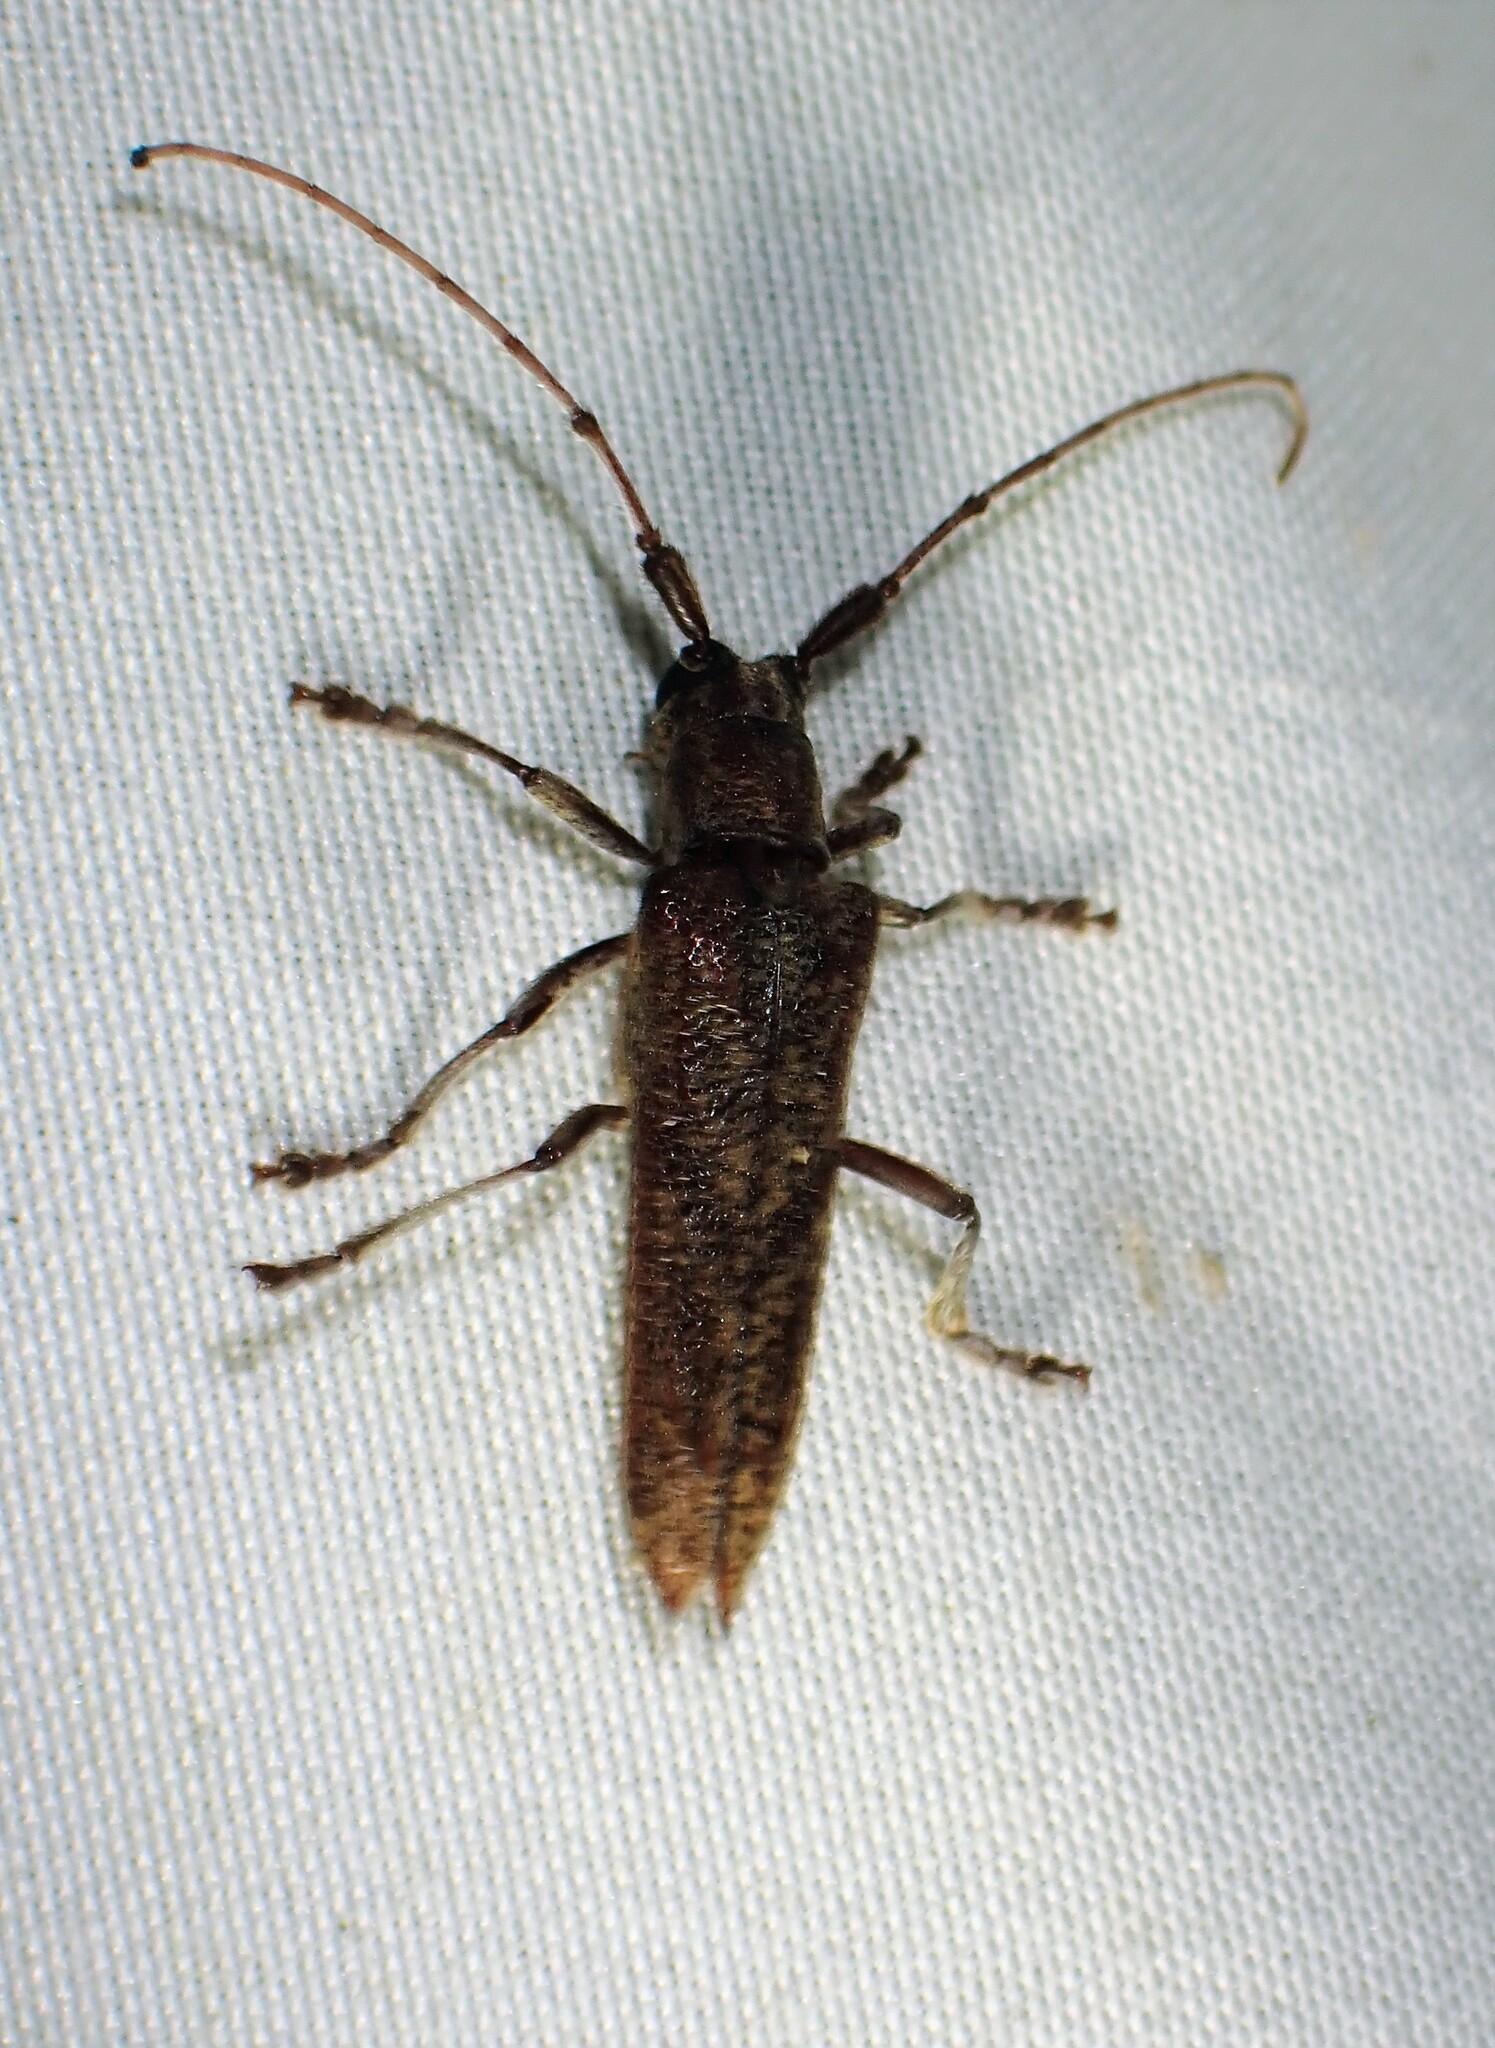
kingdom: Animalia
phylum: Arthropoda
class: Insecta
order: Coleoptera
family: Cerambycidae
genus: Saperda
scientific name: Saperda obliqua
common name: Alder borer
